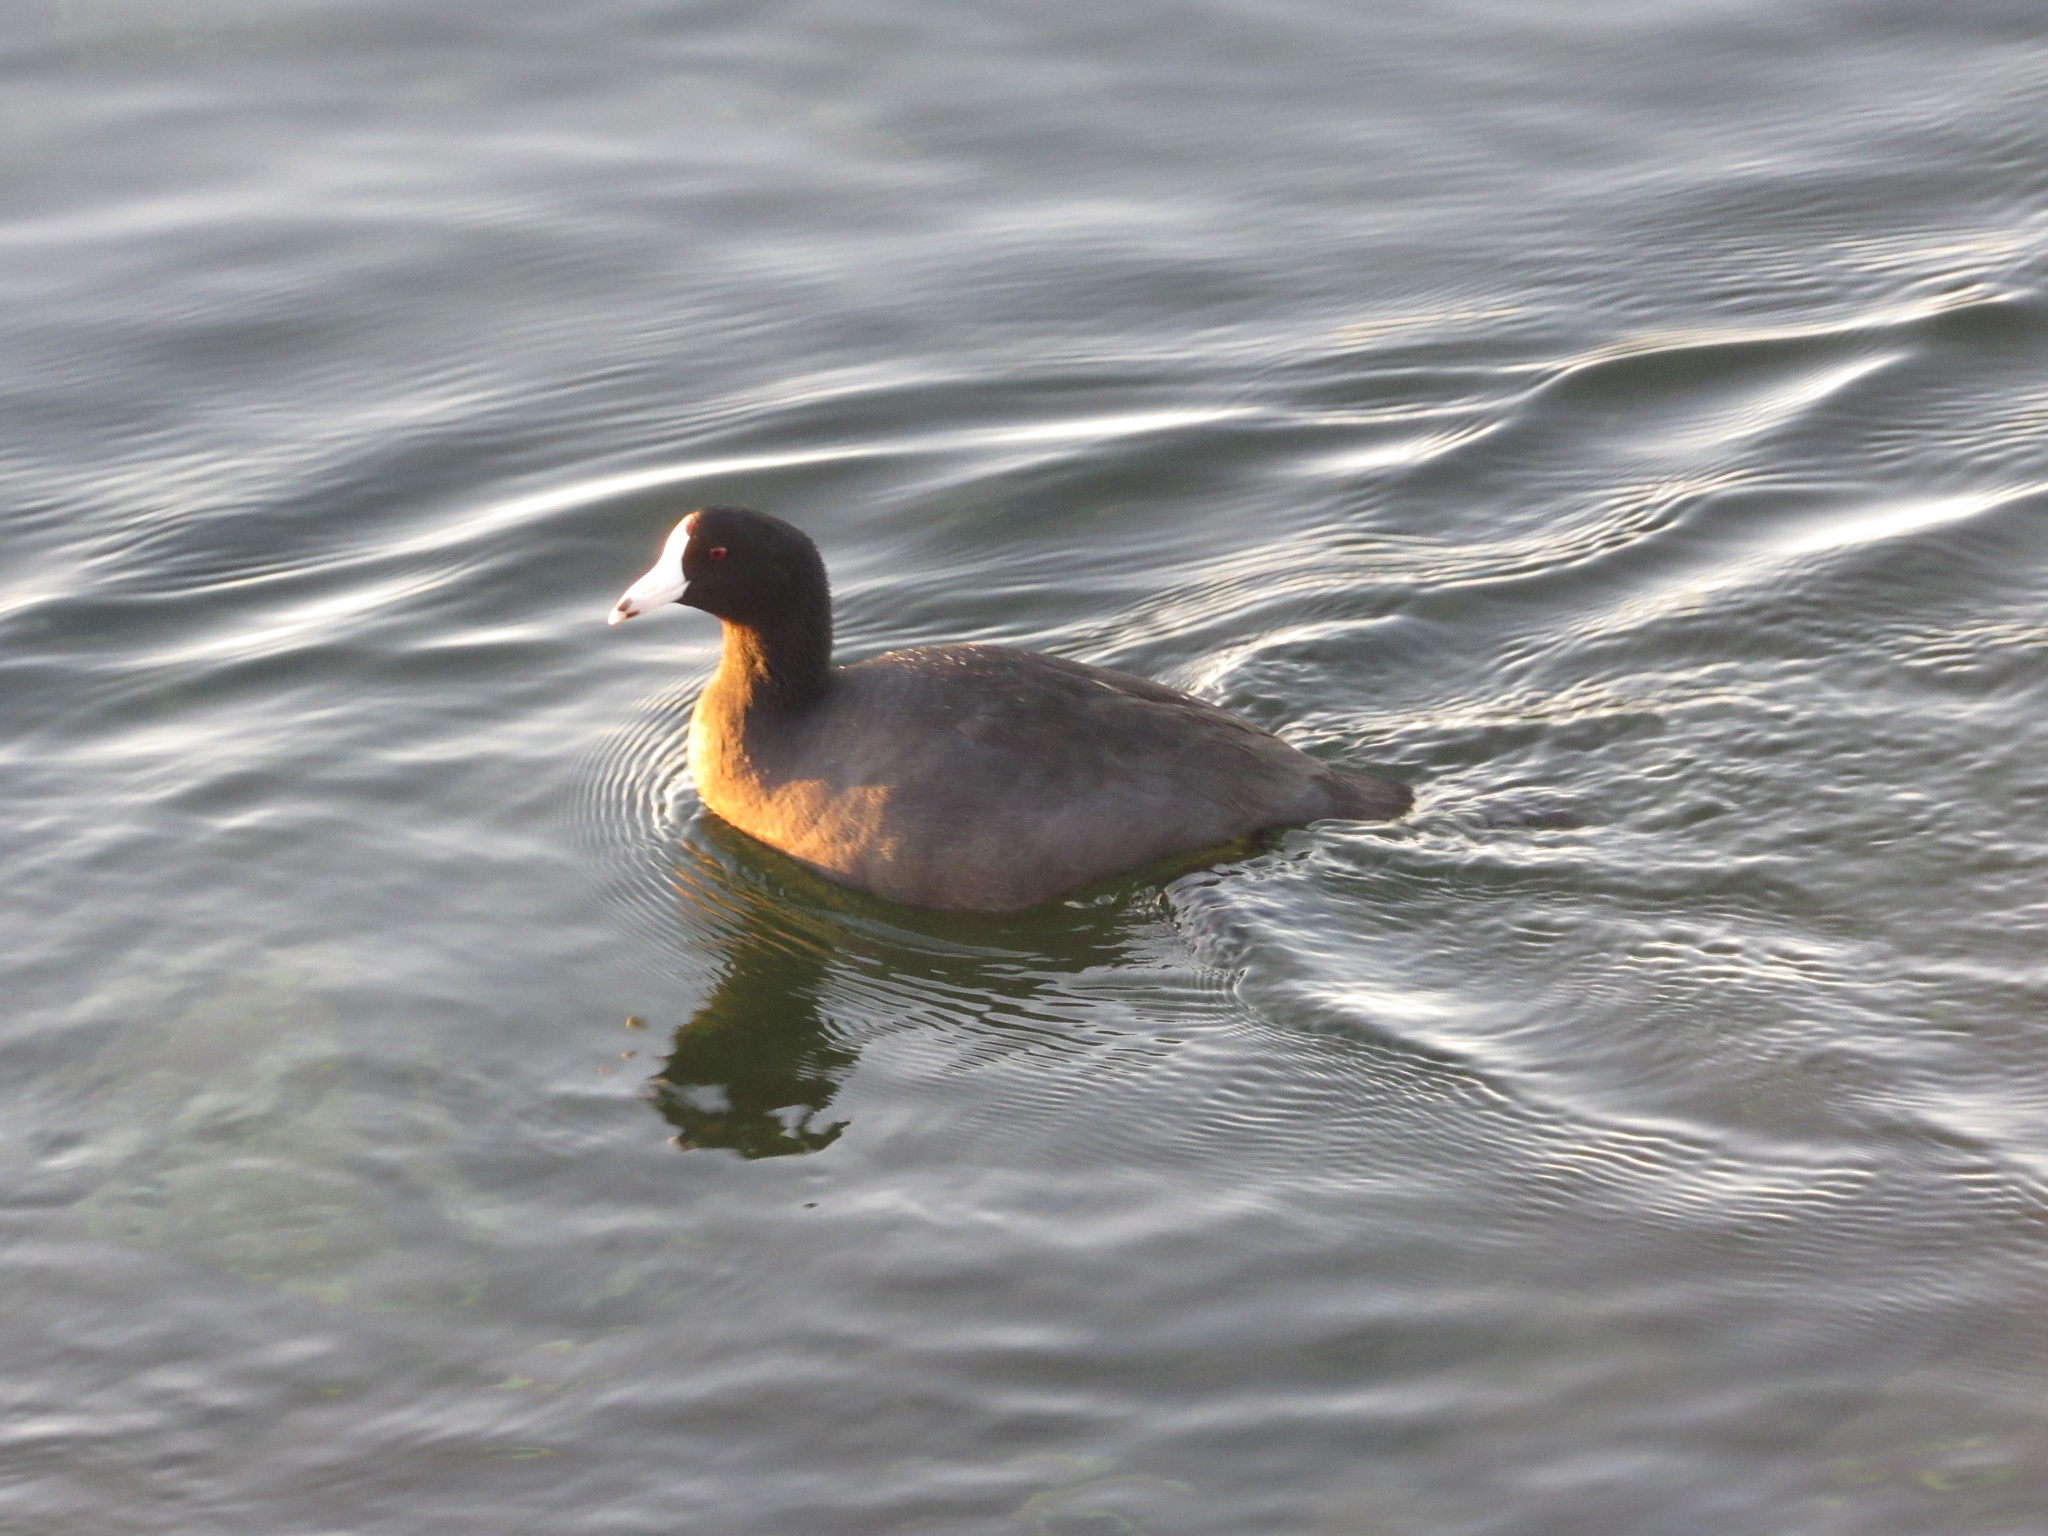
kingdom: Animalia
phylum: Chordata
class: Aves
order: Gruiformes
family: Rallidae
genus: Fulica
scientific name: Fulica americana
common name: American coot
